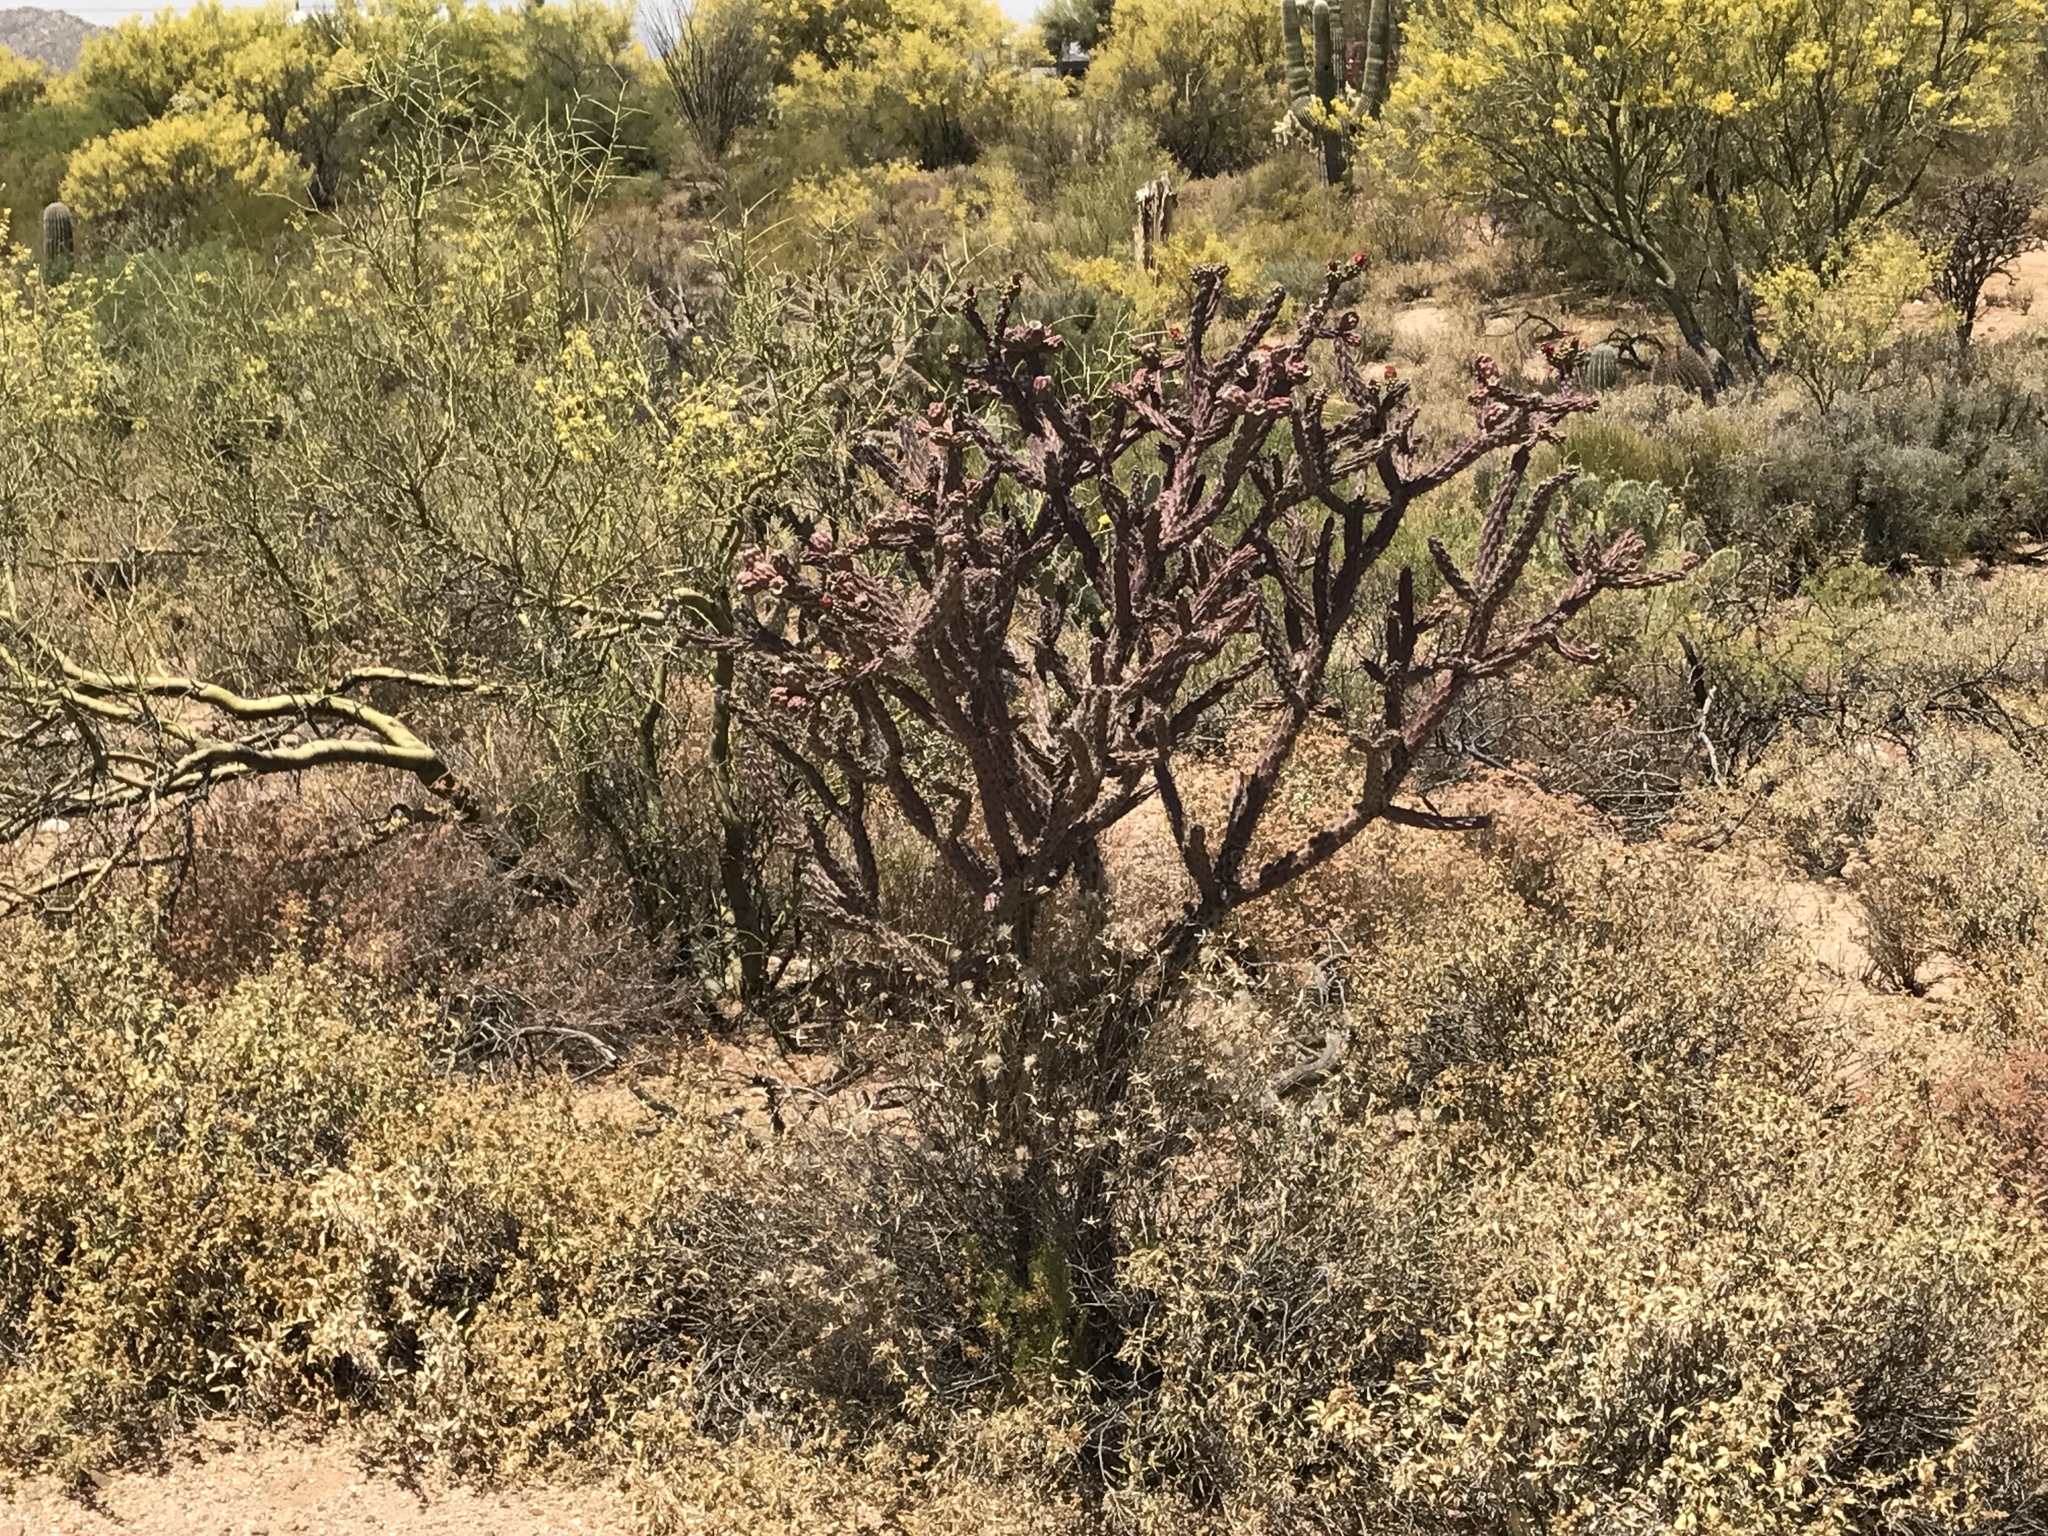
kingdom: Plantae
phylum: Tracheophyta
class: Magnoliopsida
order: Caryophyllales
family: Cactaceae
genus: Cylindropuntia
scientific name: Cylindropuntia thurberi
